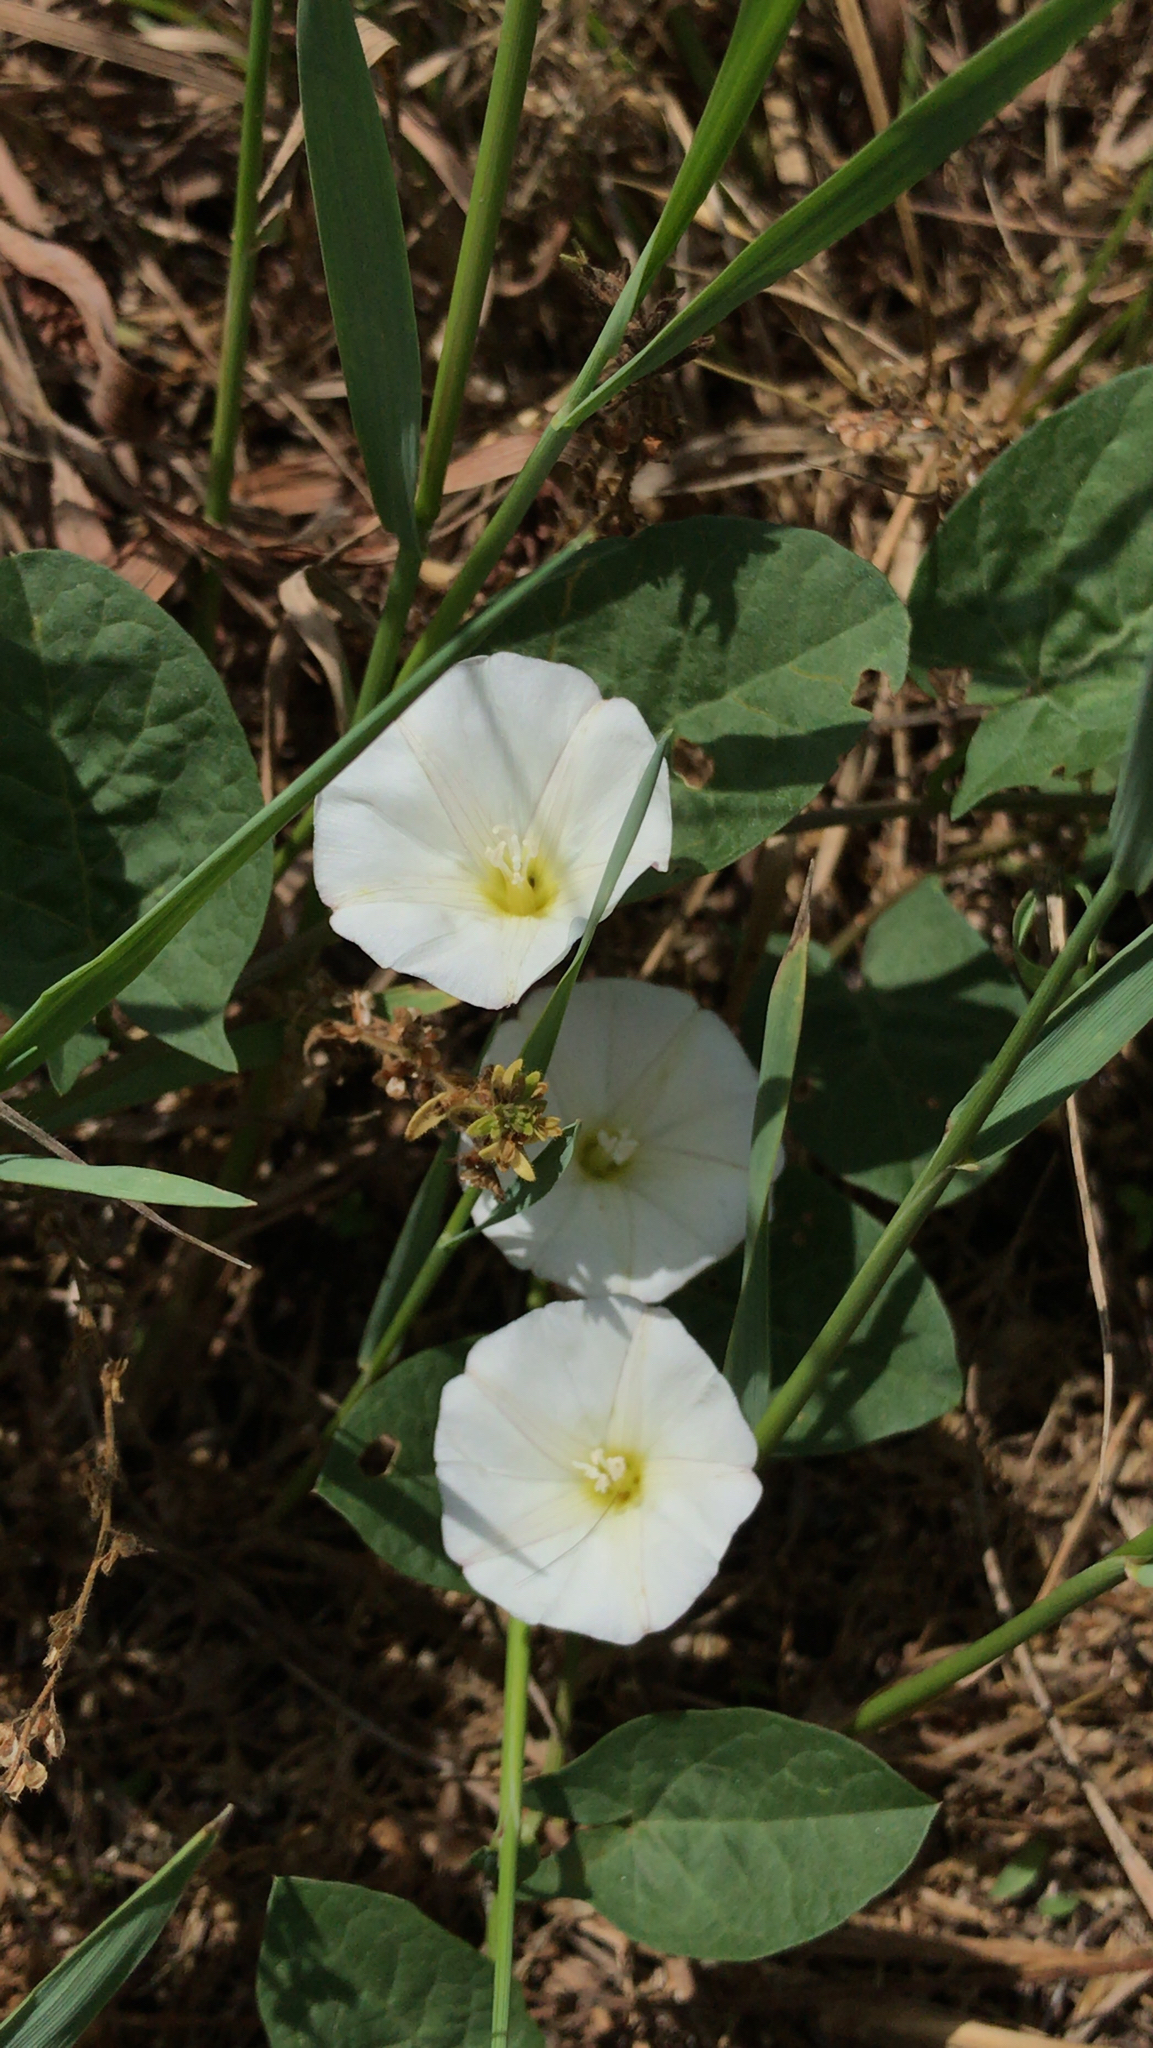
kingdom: Plantae
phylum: Tracheophyta
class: Magnoliopsida
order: Solanales
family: Convolvulaceae
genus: Convolvulus
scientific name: Convolvulus arvensis
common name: Field bindweed
